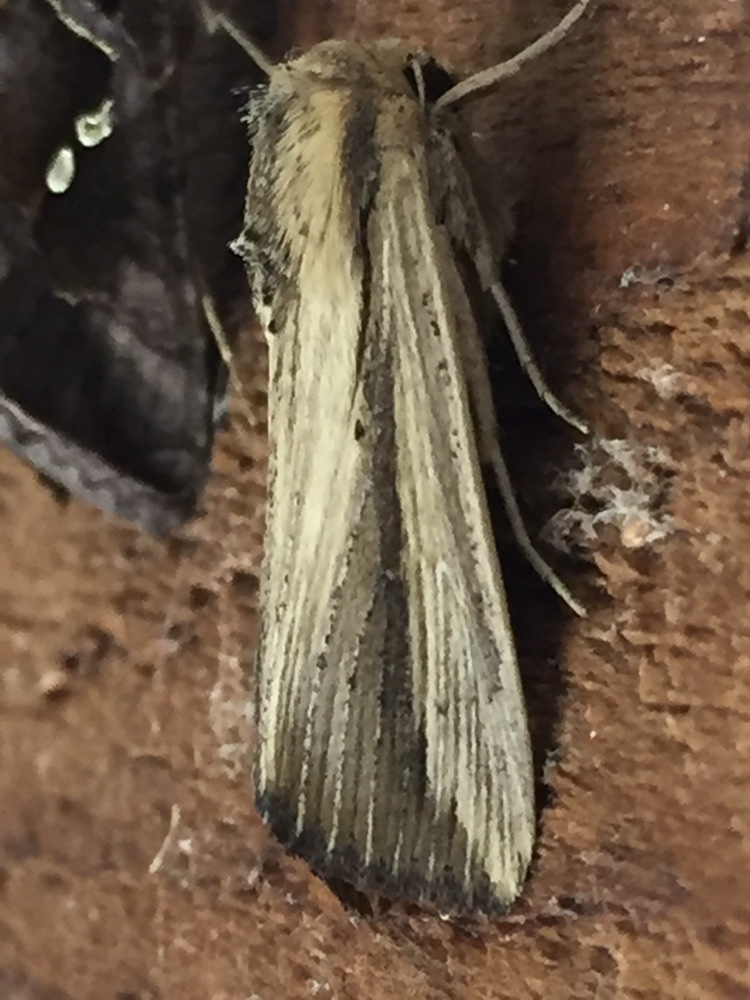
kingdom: Animalia
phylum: Arthropoda
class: Insecta
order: Lepidoptera
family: Noctuidae
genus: Leucania
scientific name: Leucania stenographa
